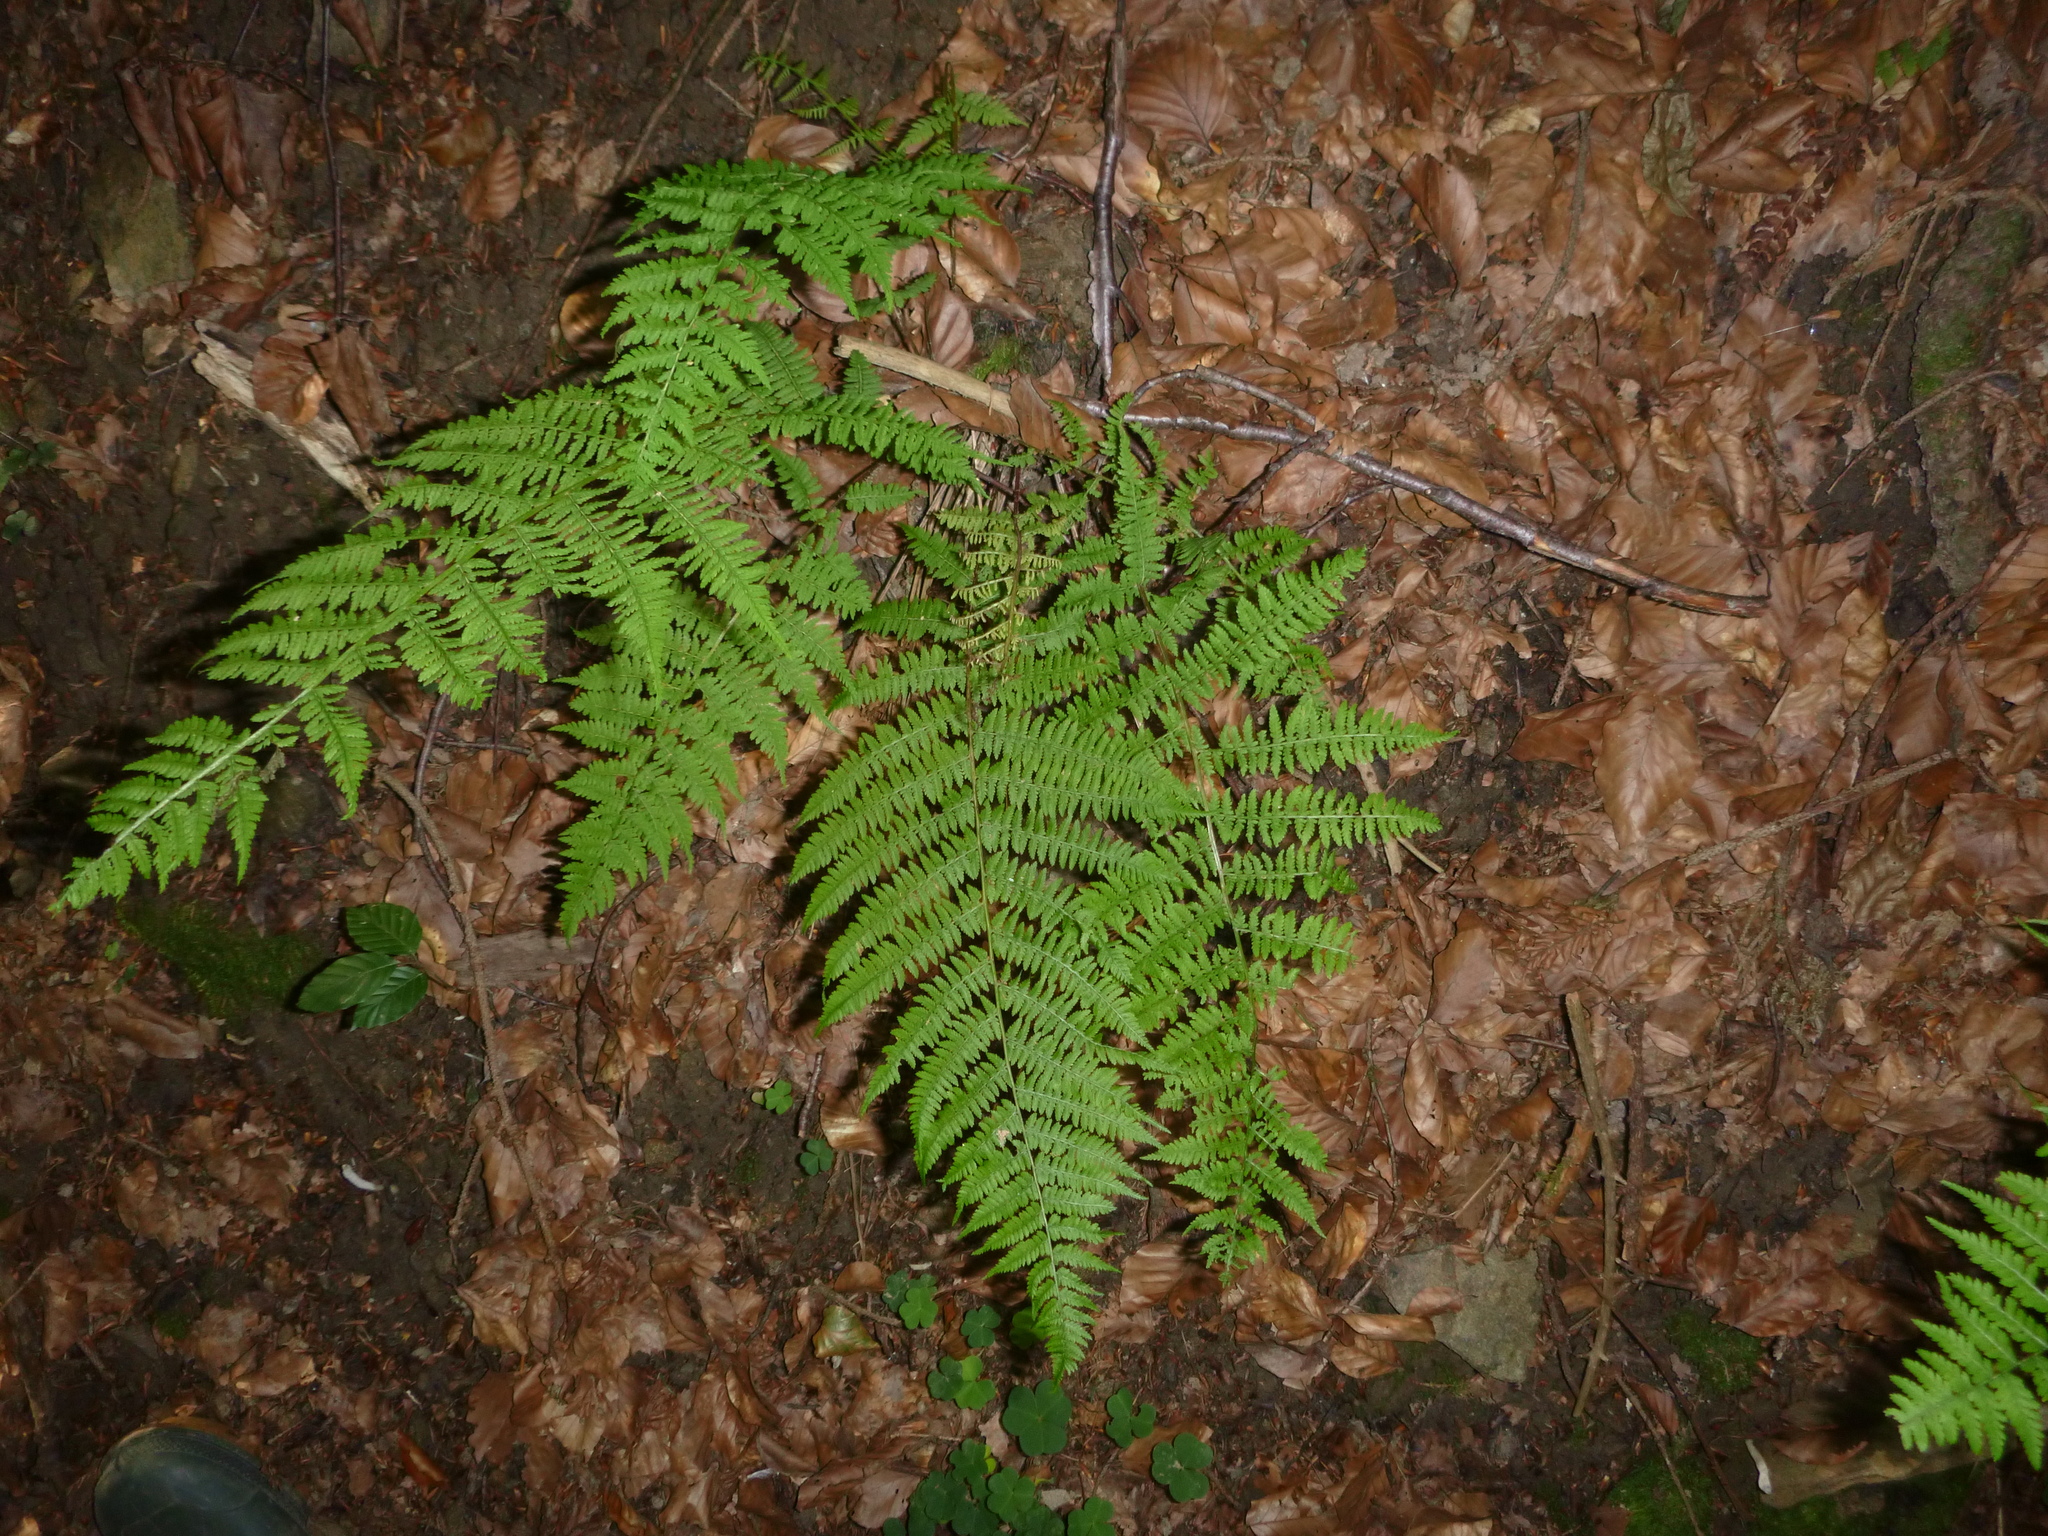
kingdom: Plantae
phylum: Tracheophyta
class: Polypodiopsida
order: Polypodiales
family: Athyriaceae
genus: Athyrium
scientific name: Athyrium filix-femina
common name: Lady fern
